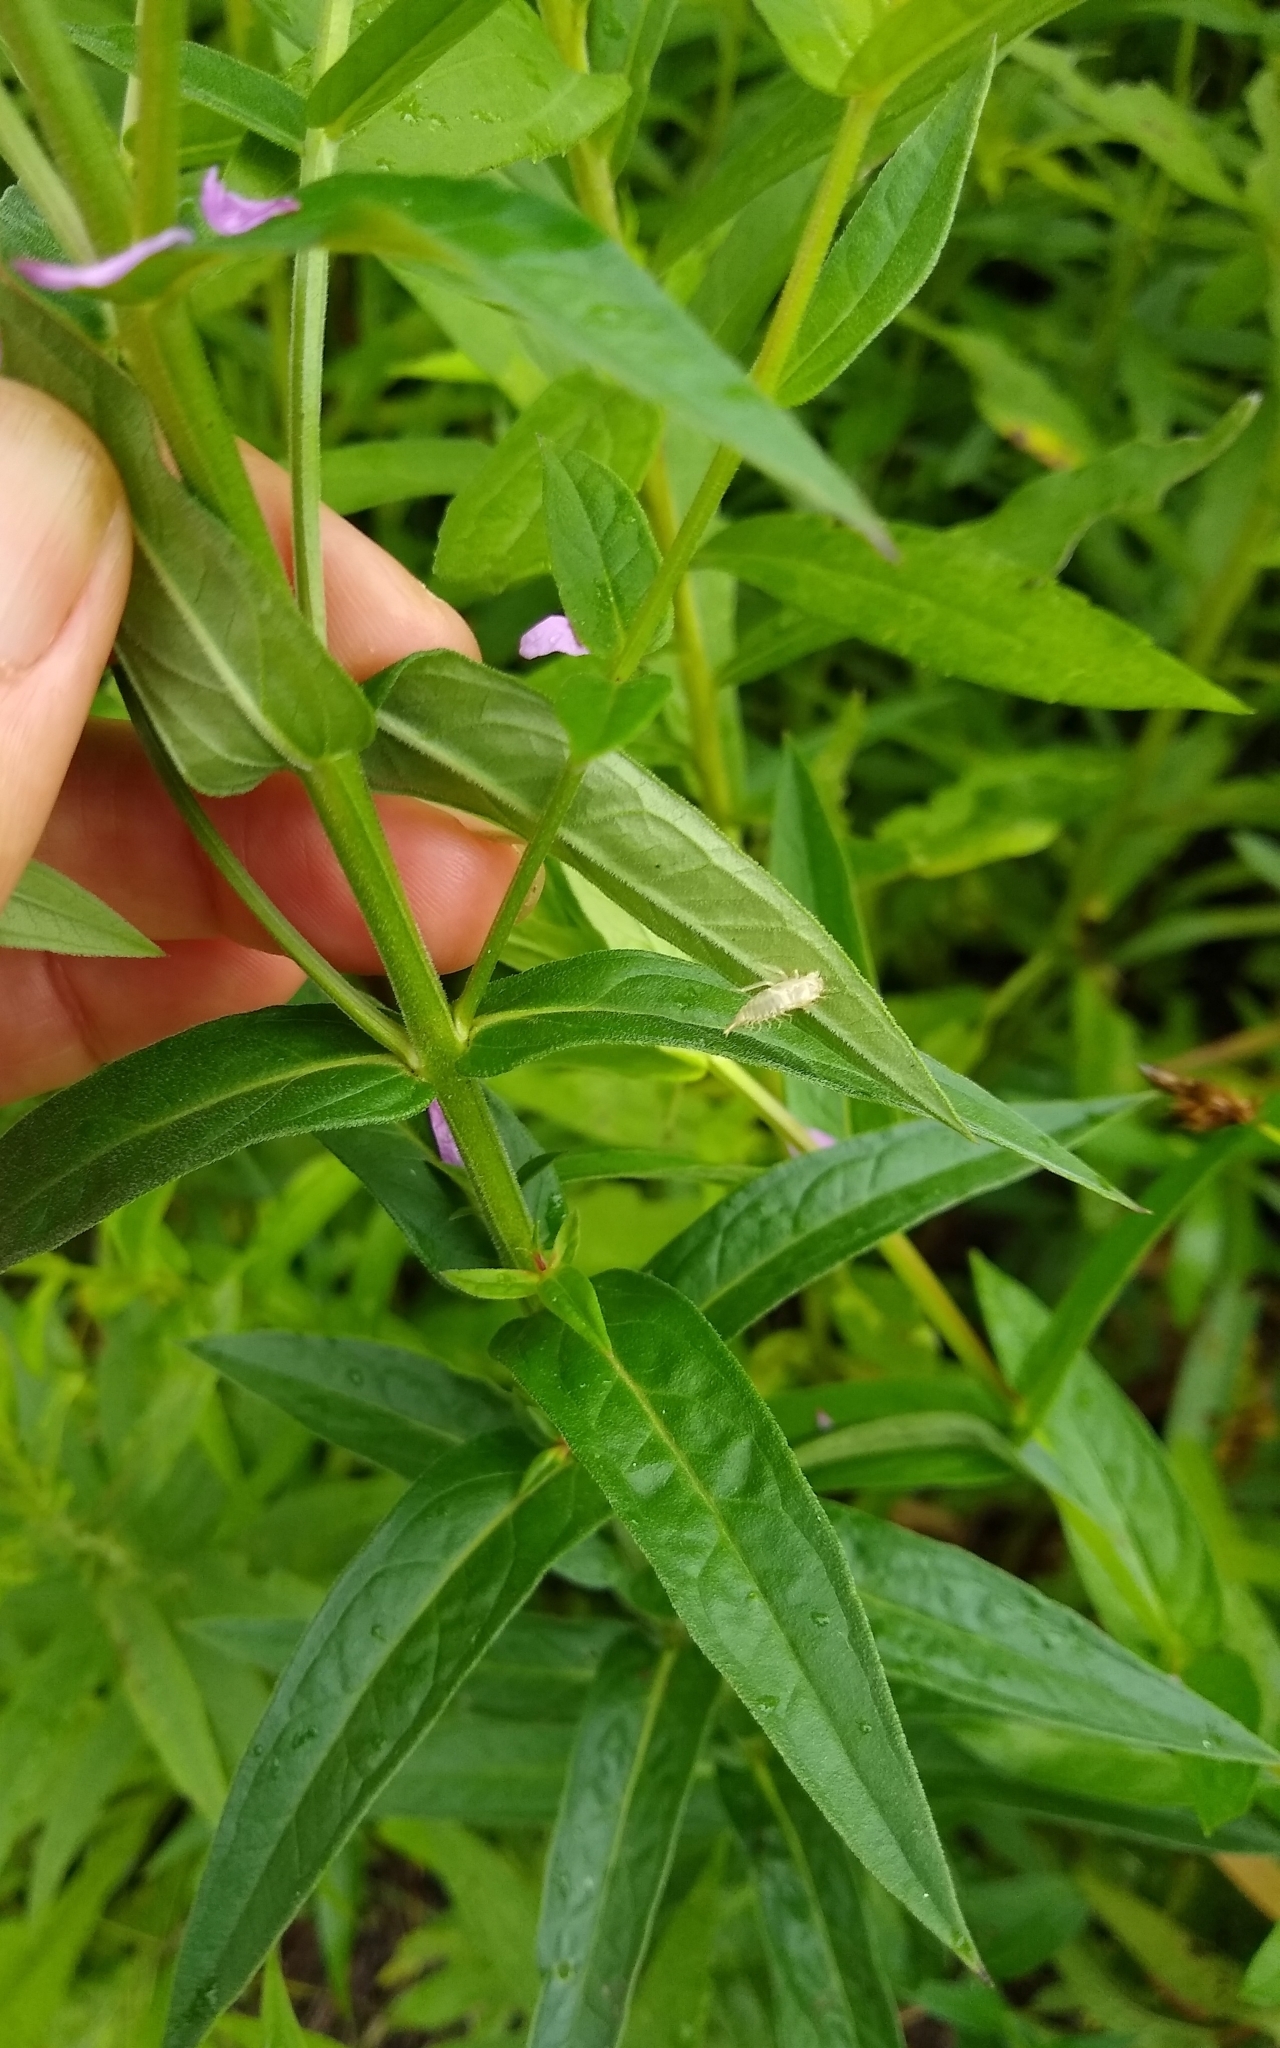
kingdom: Plantae
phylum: Tracheophyta
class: Magnoliopsida
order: Myrtales
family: Lythraceae
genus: Lythrum
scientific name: Lythrum salicaria
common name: Purple loosestrife
